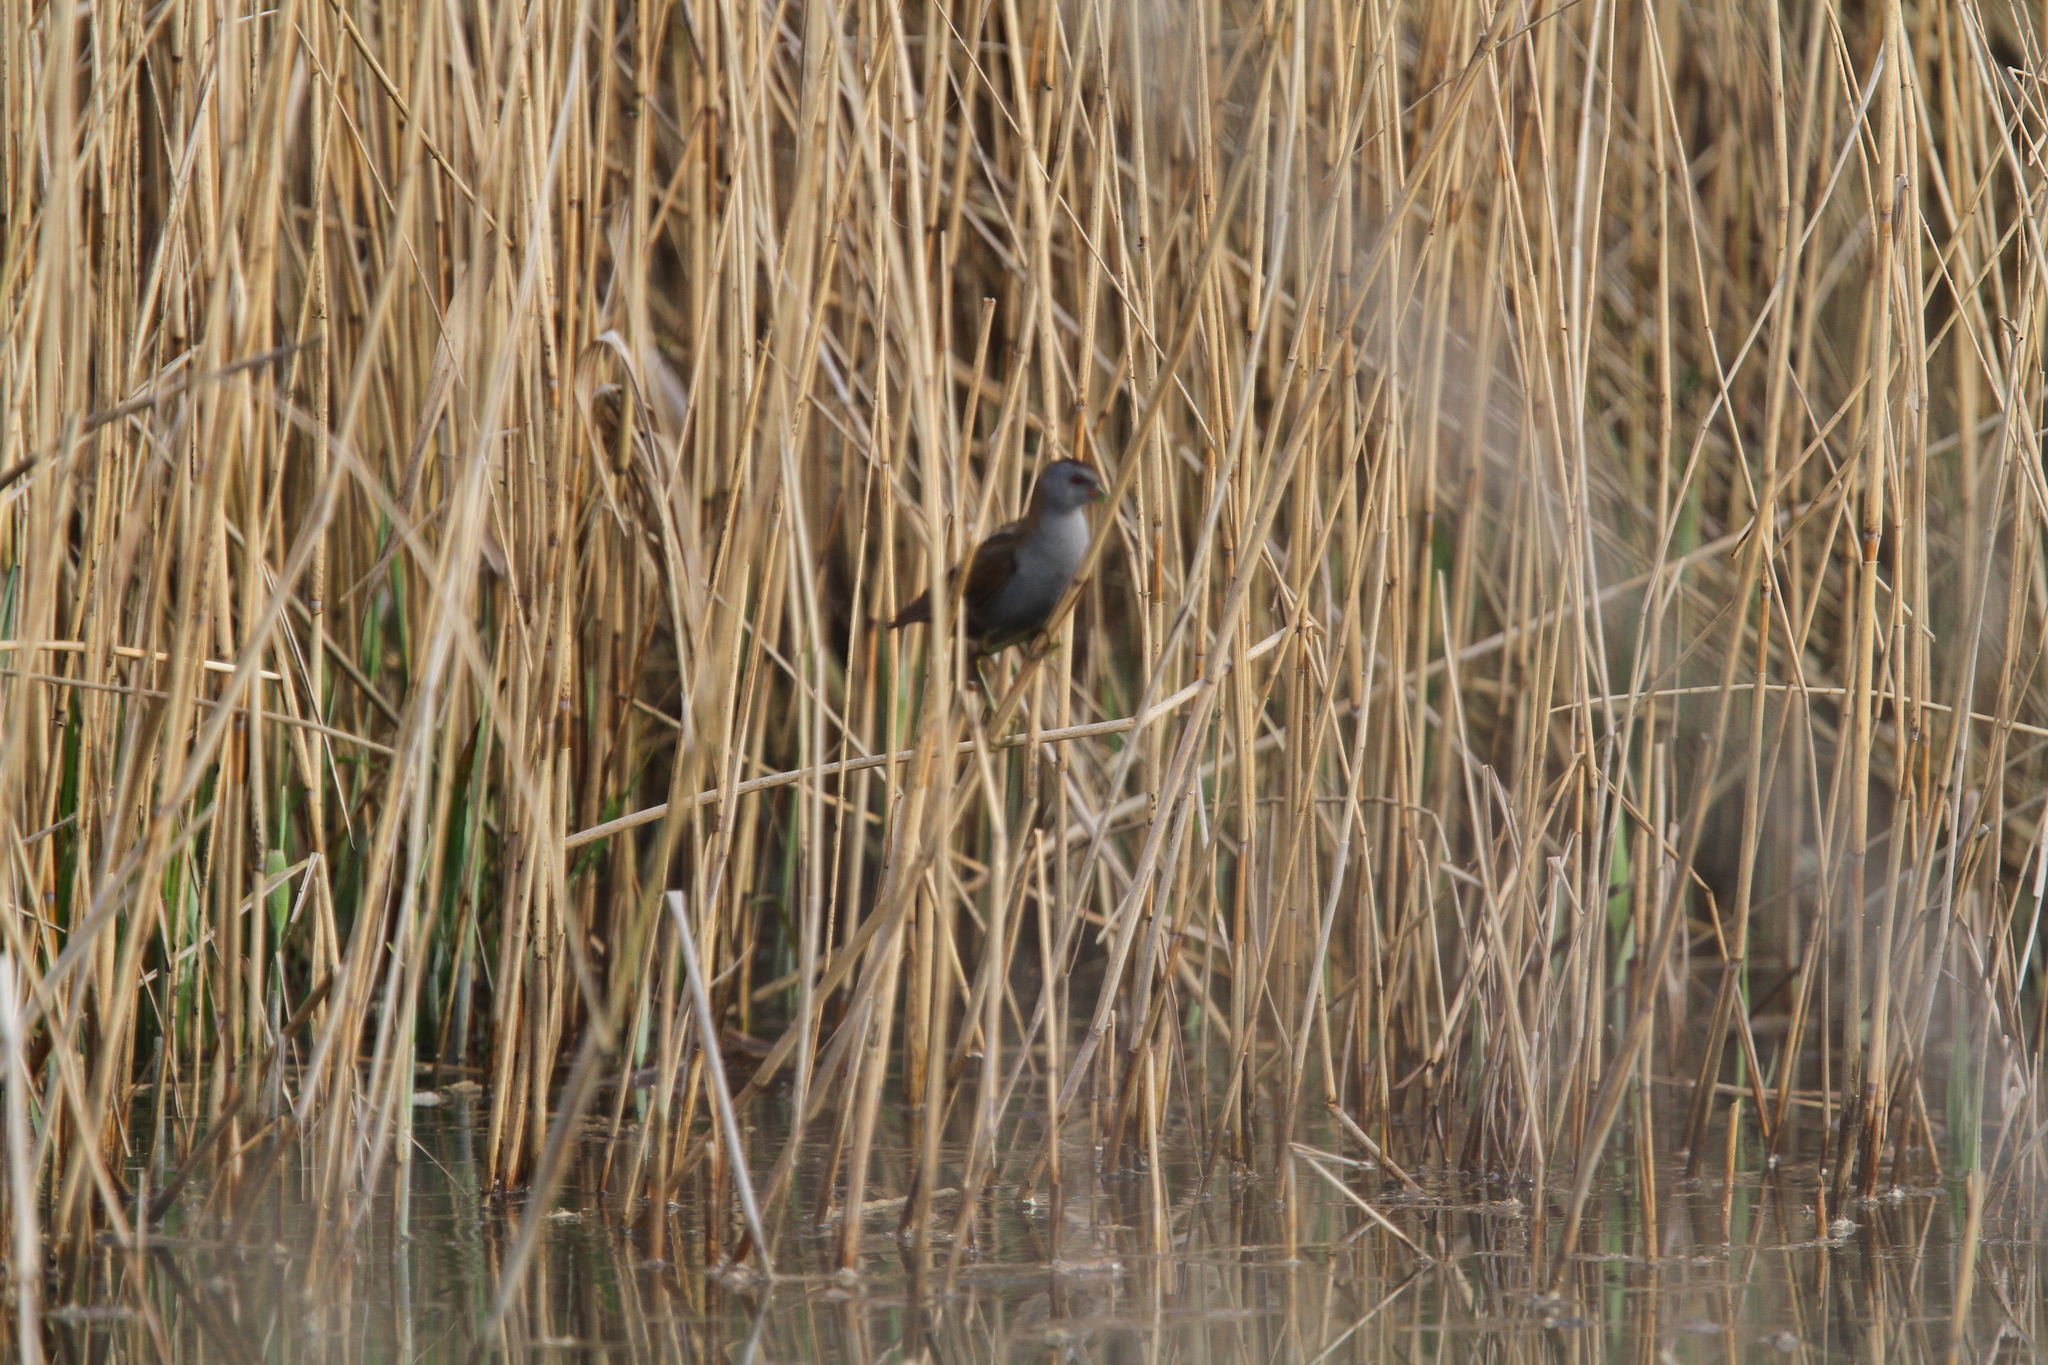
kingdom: Animalia
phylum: Chordata
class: Aves
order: Gruiformes
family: Rallidae
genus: Porzana
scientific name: Porzana parva
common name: Little crake
